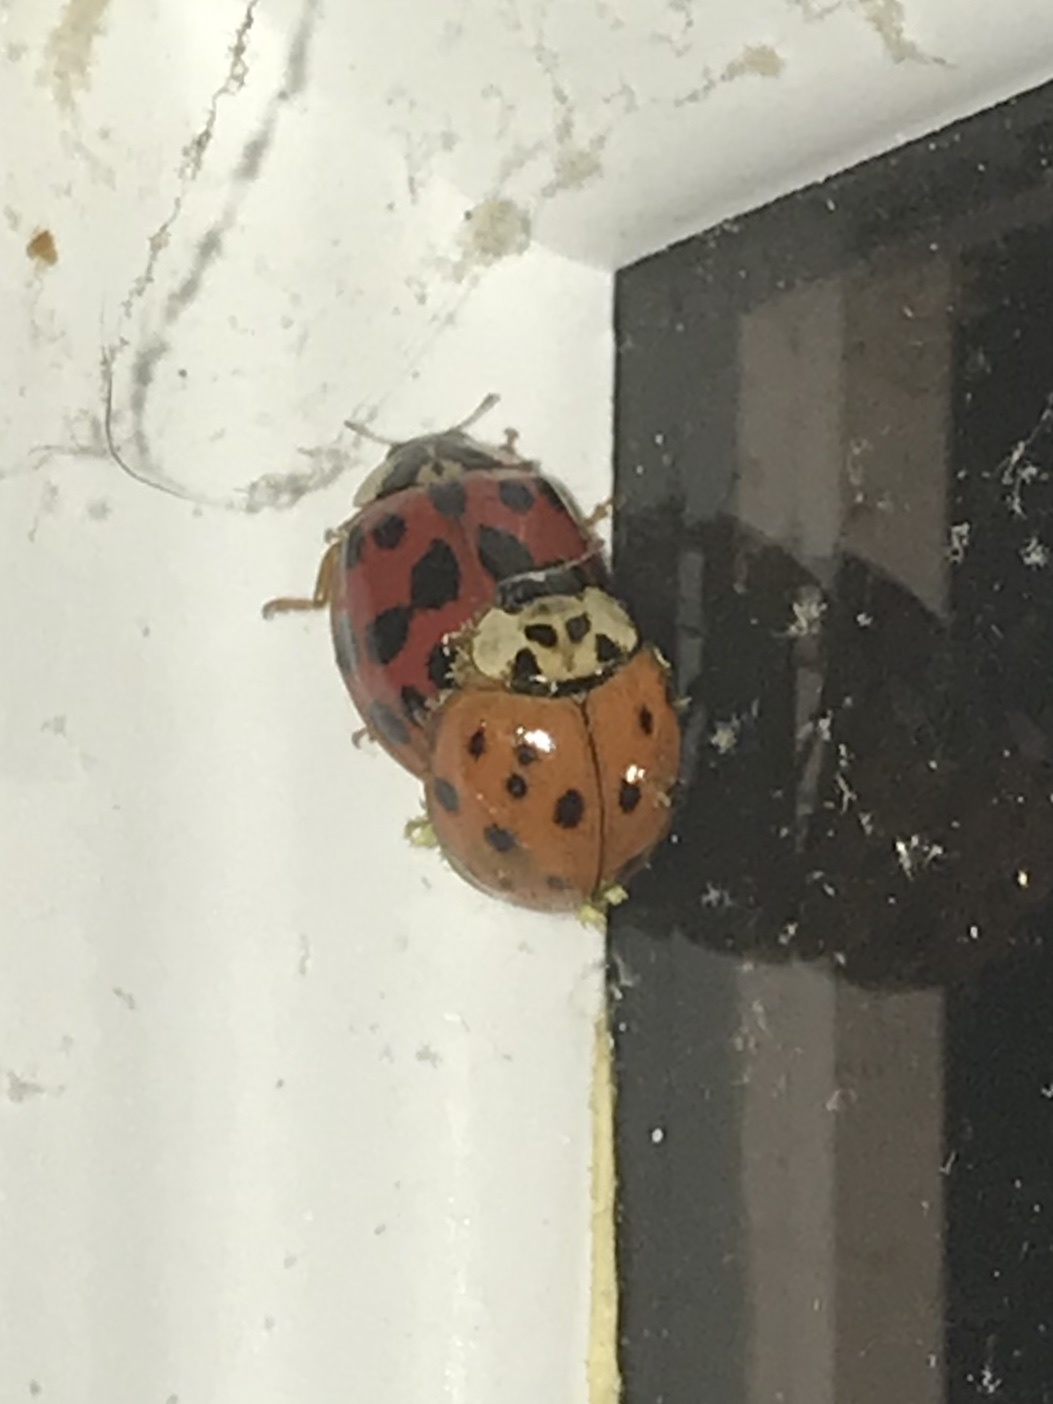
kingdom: Animalia
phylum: Arthropoda
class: Insecta
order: Coleoptera
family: Coccinellidae
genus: Harmonia
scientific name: Harmonia axyridis
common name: Harlequin ladybird
